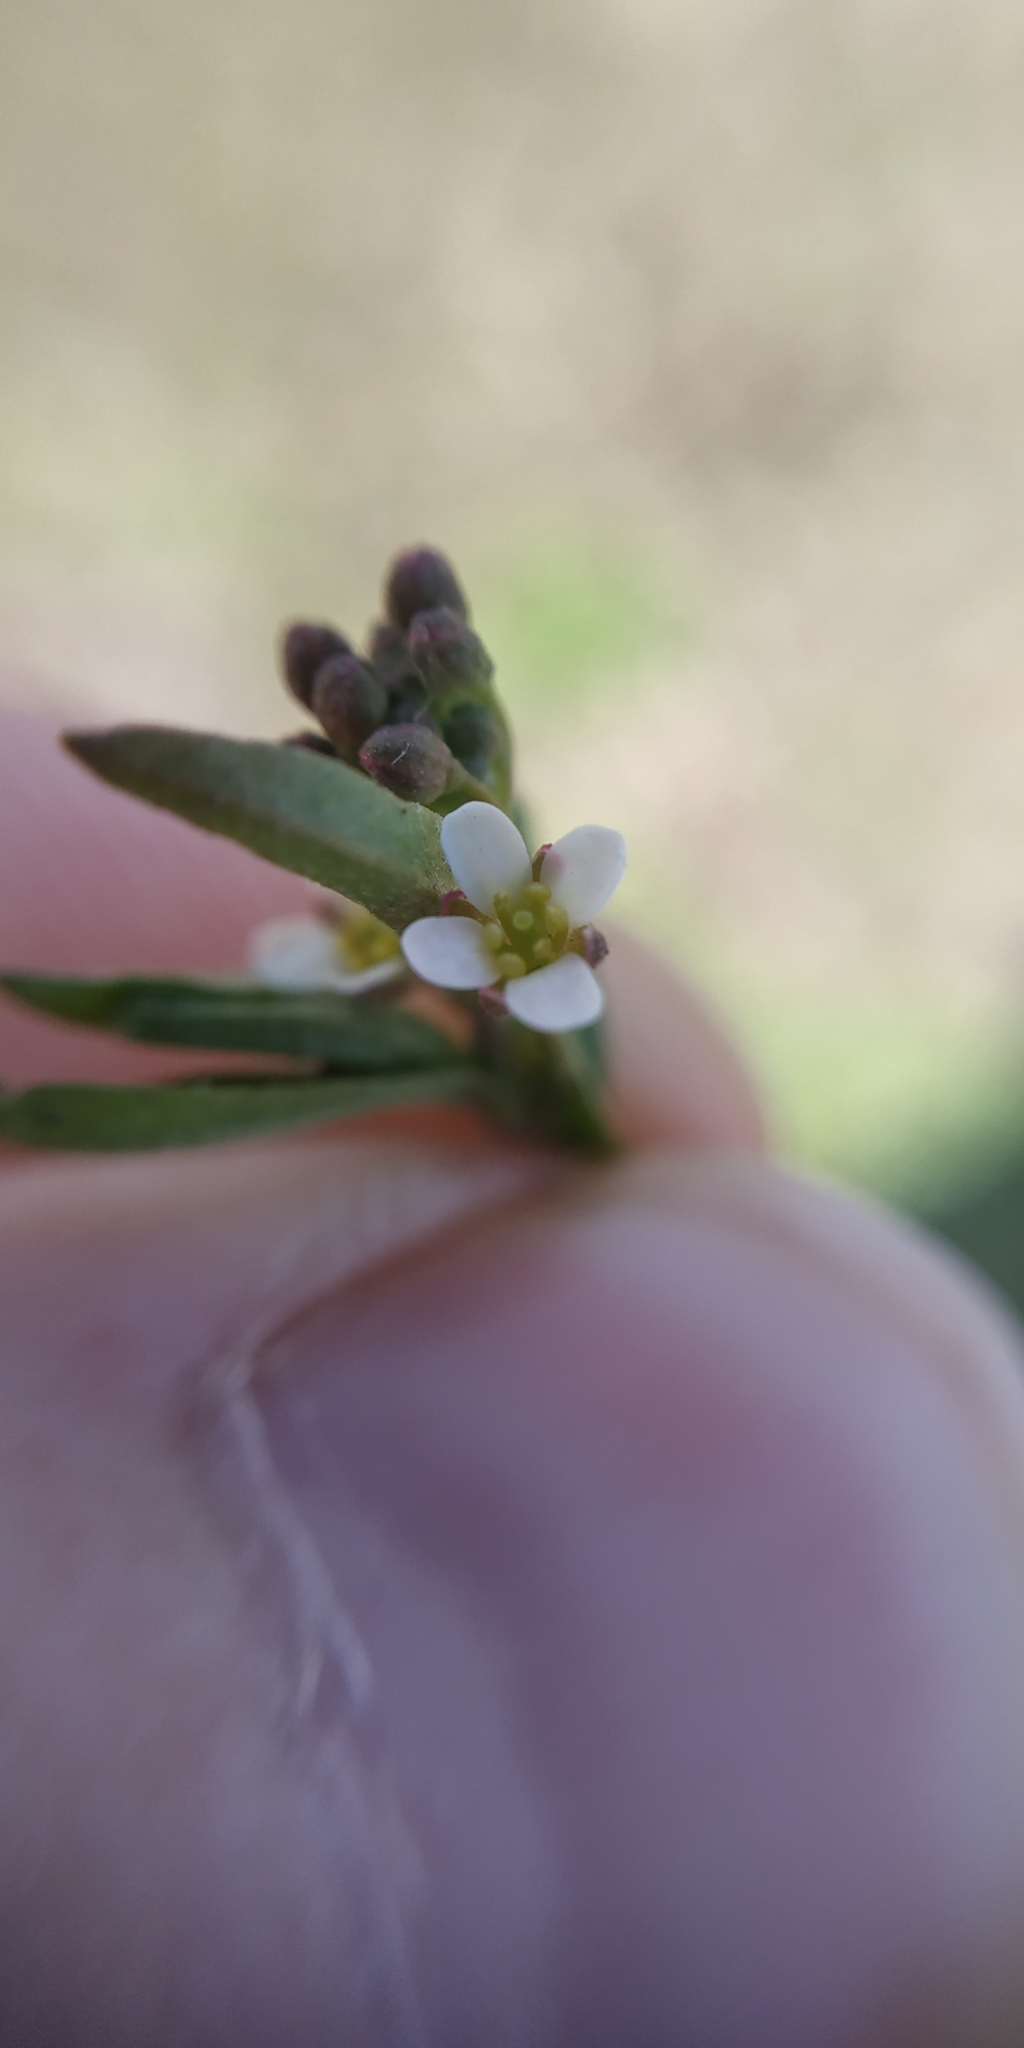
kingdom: Plantae
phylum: Tracheophyta
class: Magnoliopsida
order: Brassicales
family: Brassicaceae
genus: Thlaspi
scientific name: Thlaspi arvense
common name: Field pennycress
